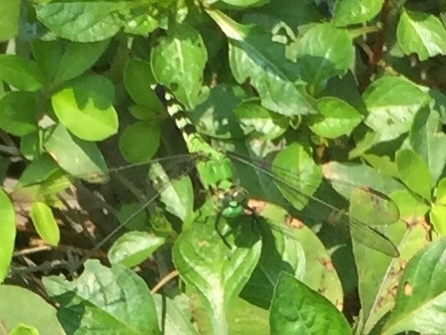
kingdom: Animalia
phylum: Arthropoda
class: Insecta
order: Odonata
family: Libellulidae
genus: Erythemis
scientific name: Erythemis simplicicollis
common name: Eastern pondhawk
